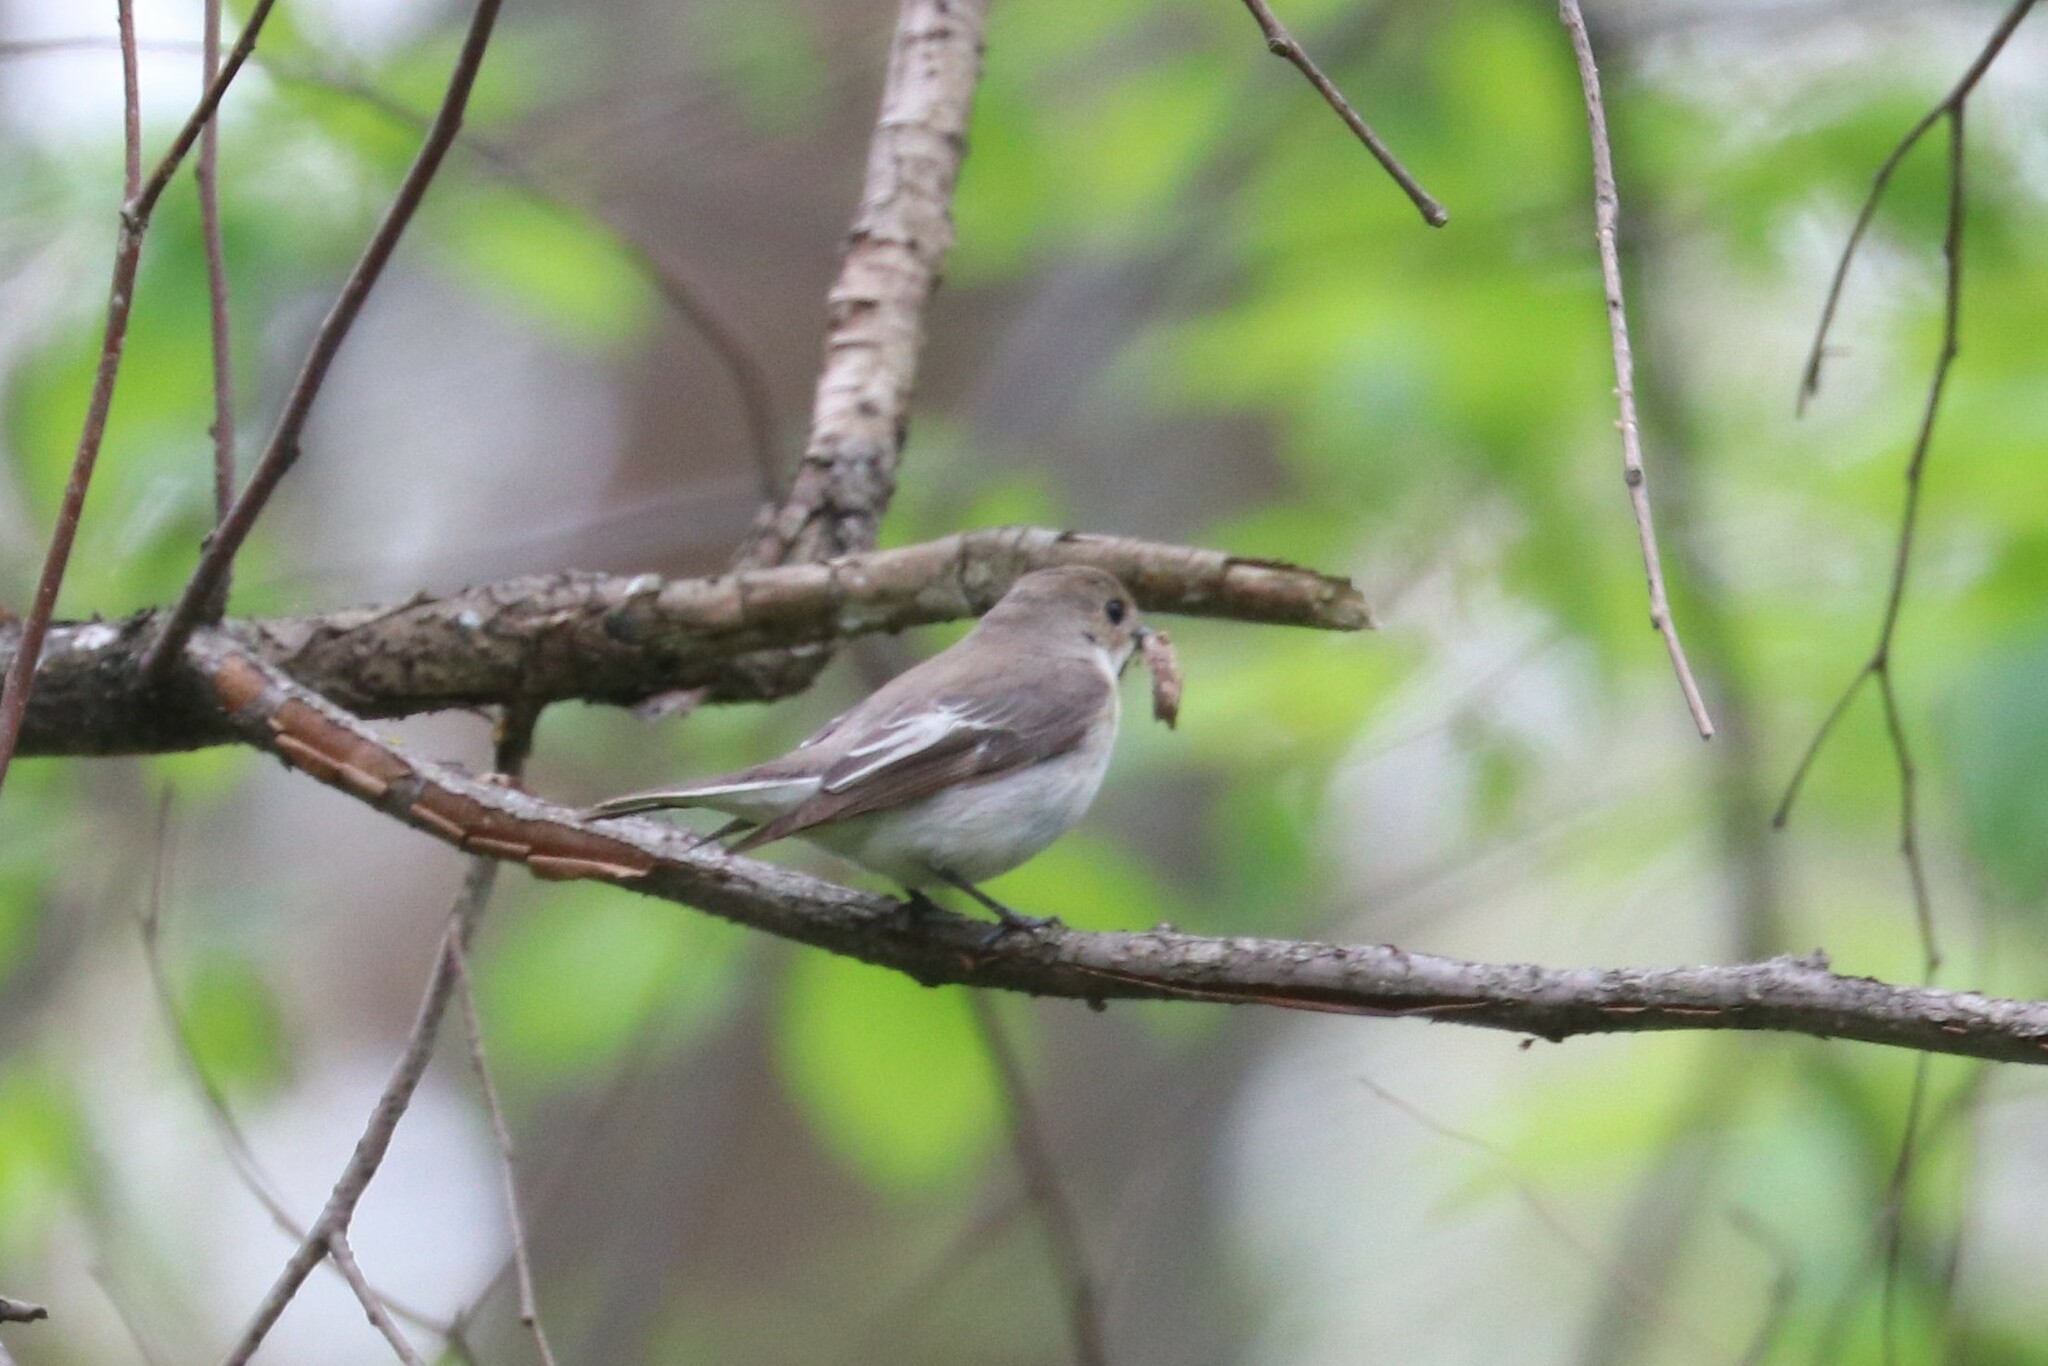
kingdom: Animalia
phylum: Chordata
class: Aves
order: Passeriformes
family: Muscicapidae
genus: Ficedula
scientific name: Ficedula hypoleuca
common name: European pied flycatcher
